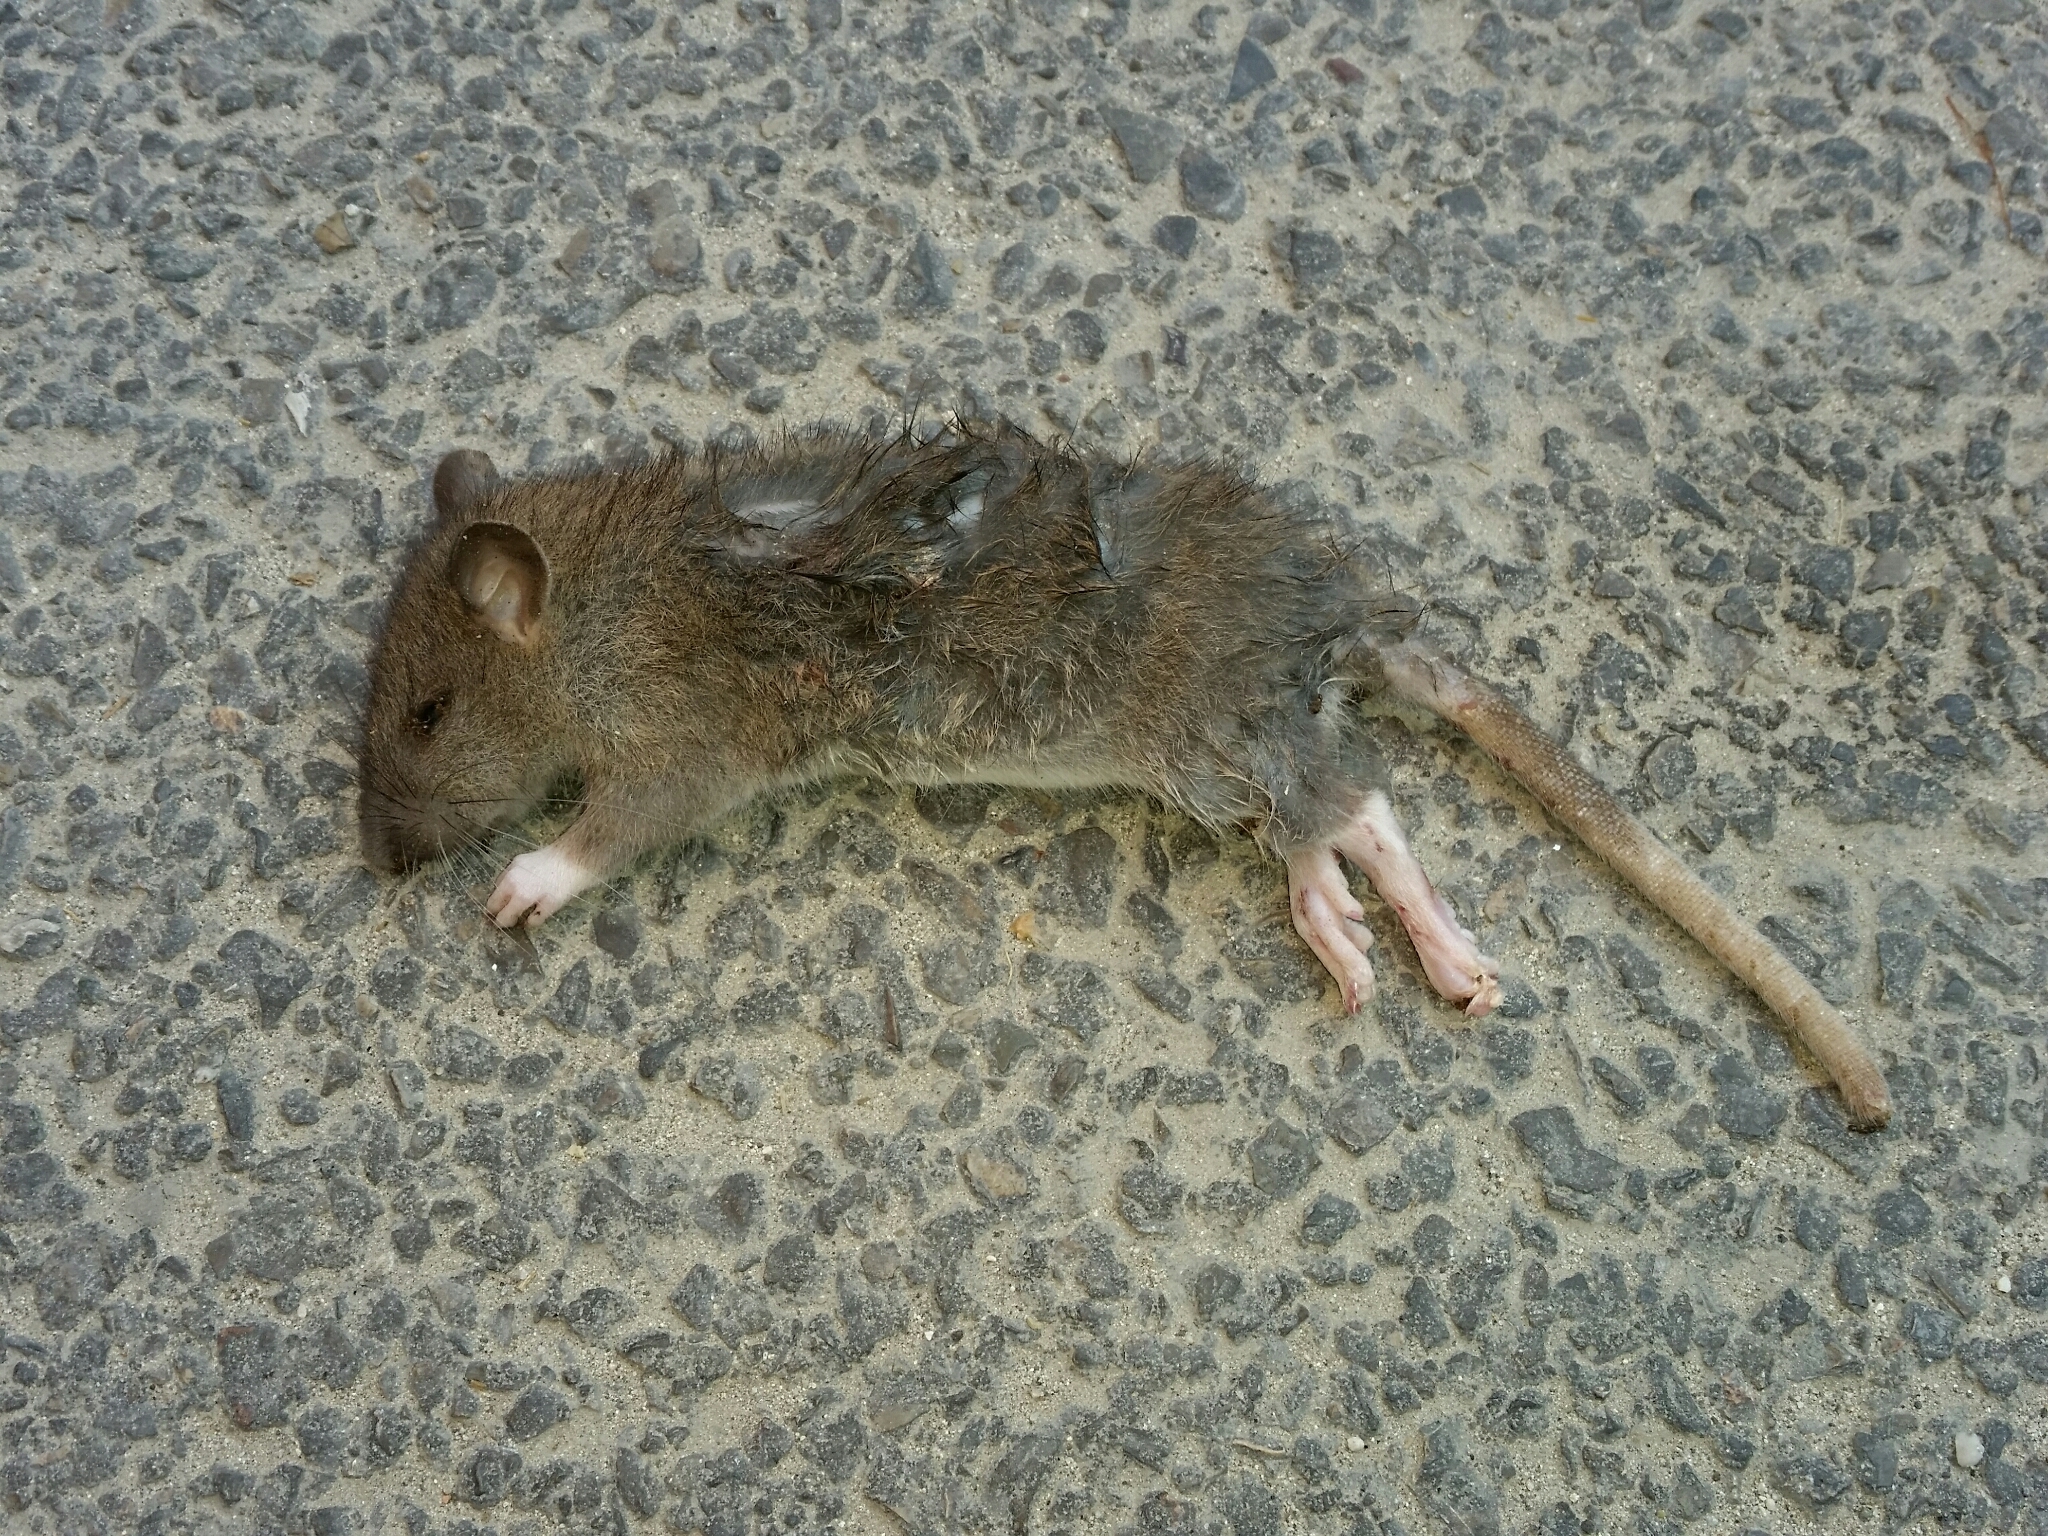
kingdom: Animalia
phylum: Chordata
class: Mammalia
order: Rodentia
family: Muridae
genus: Rattus
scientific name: Rattus norvegicus
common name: Brown rat
